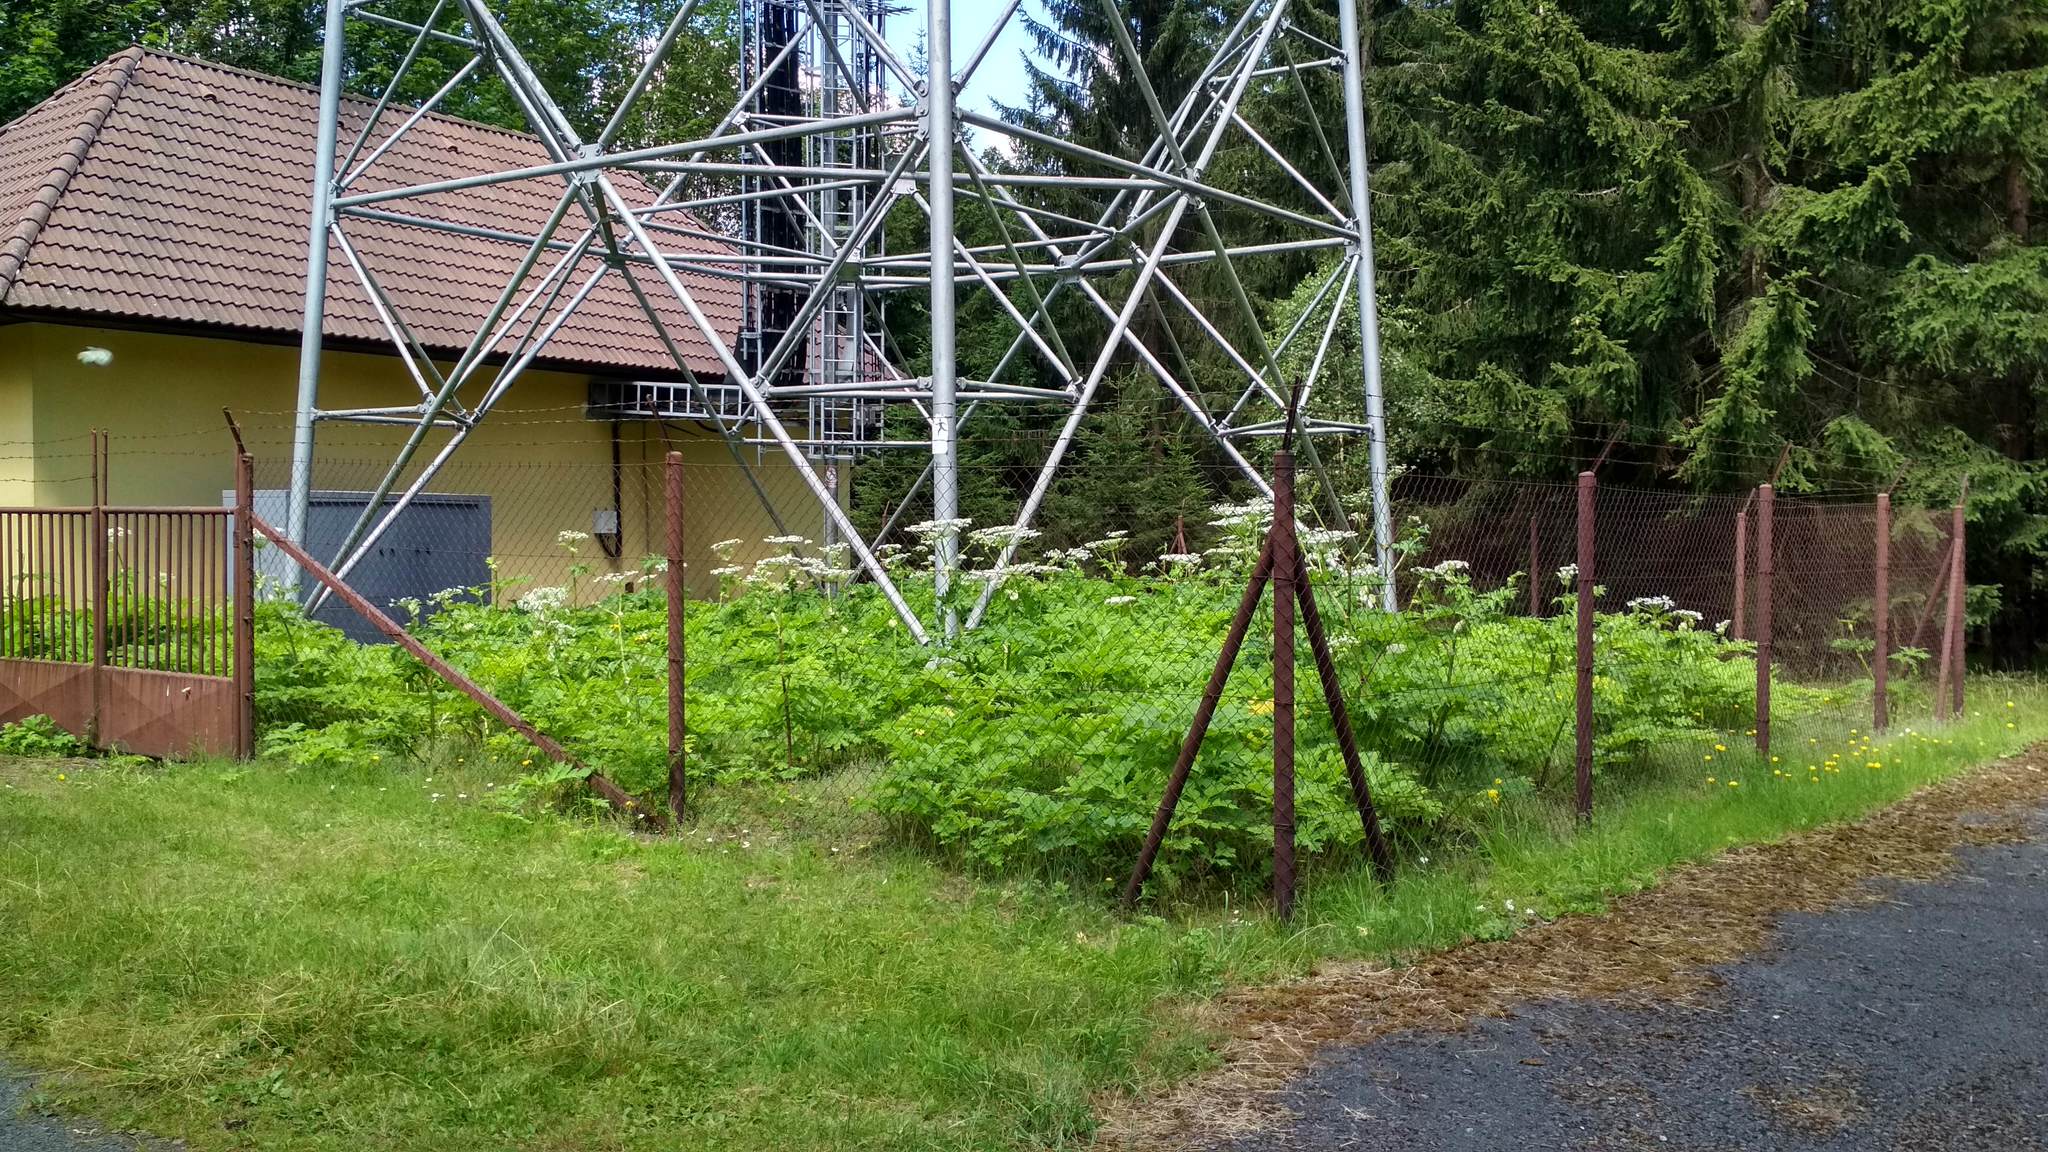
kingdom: Plantae
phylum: Tracheophyta
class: Magnoliopsida
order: Apiales
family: Apiaceae
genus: Heracleum
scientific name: Heracleum mantegazzianum
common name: Giant hogweed
